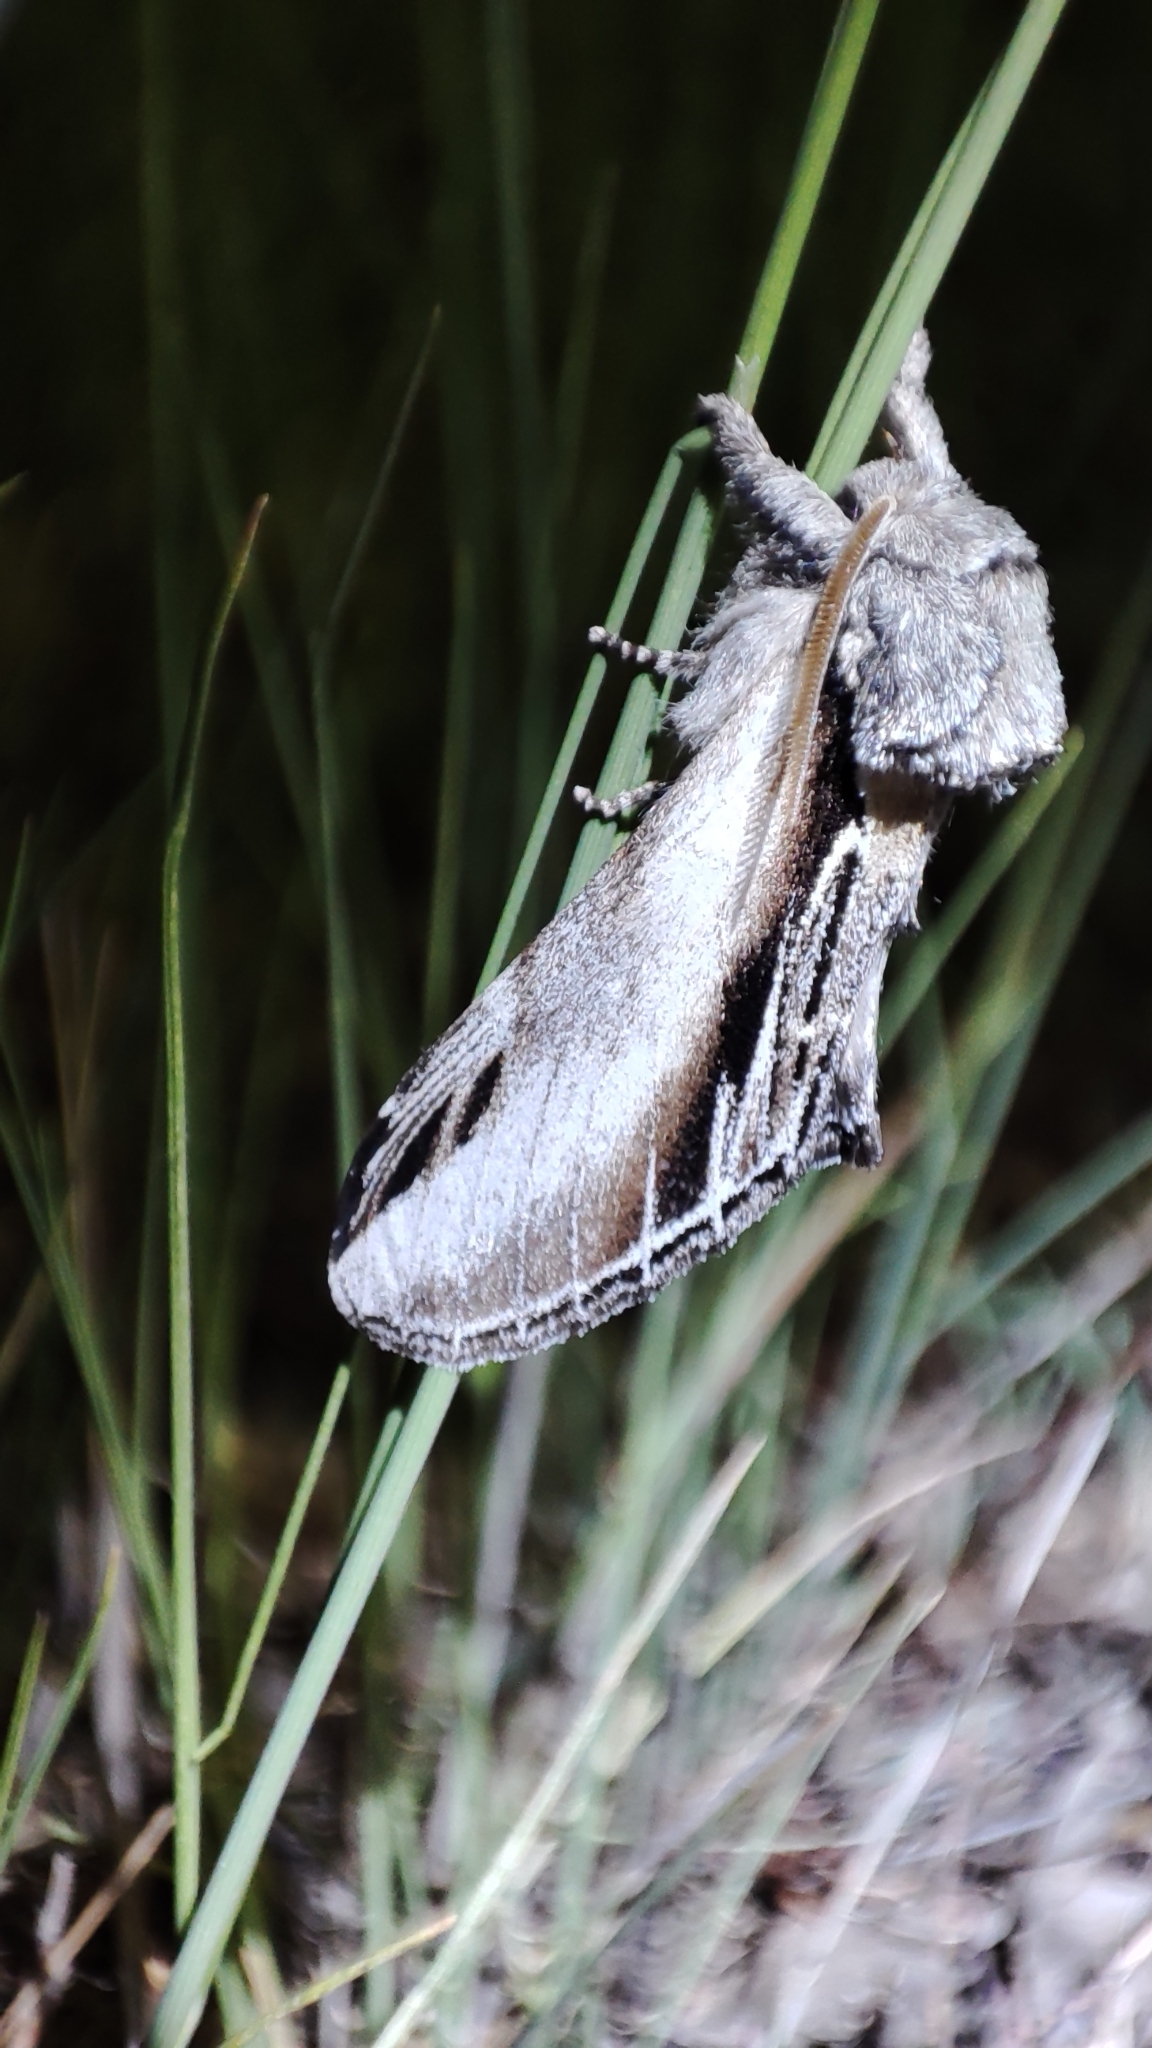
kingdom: Animalia
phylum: Arthropoda
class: Insecta
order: Lepidoptera
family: Notodontidae
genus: Pheosia
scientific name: Pheosia tremula
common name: Swallow prominent
